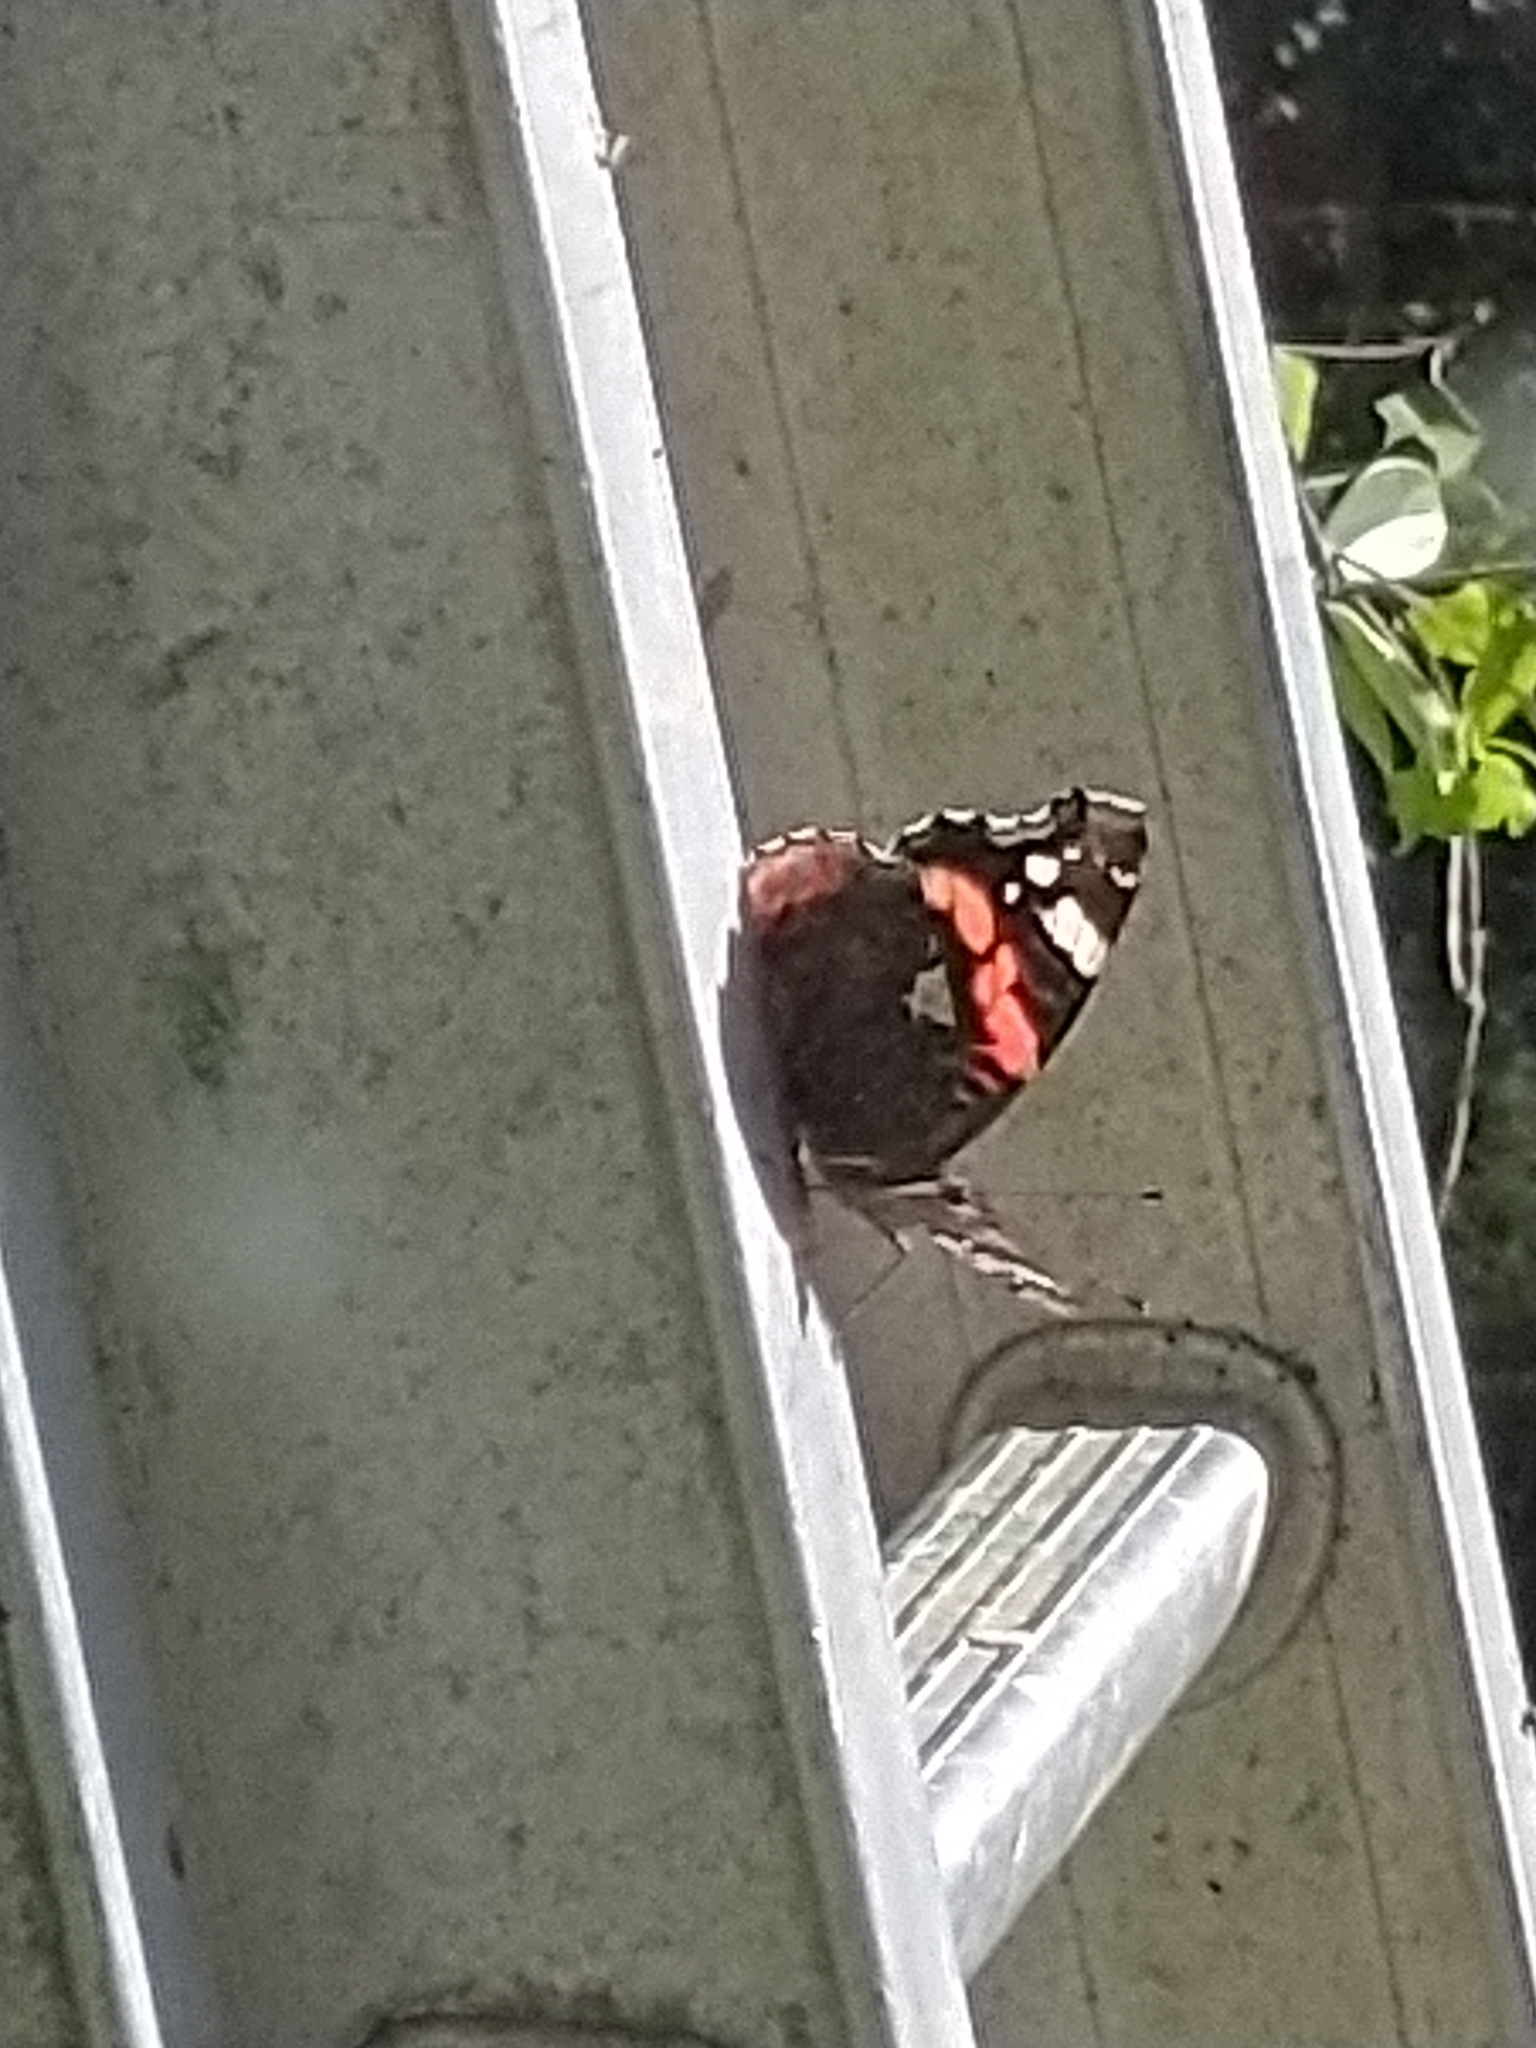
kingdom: Animalia
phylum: Arthropoda
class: Insecta
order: Lepidoptera
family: Nymphalidae
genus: Vanessa
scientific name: Vanessa atalanta
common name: Red admiral
